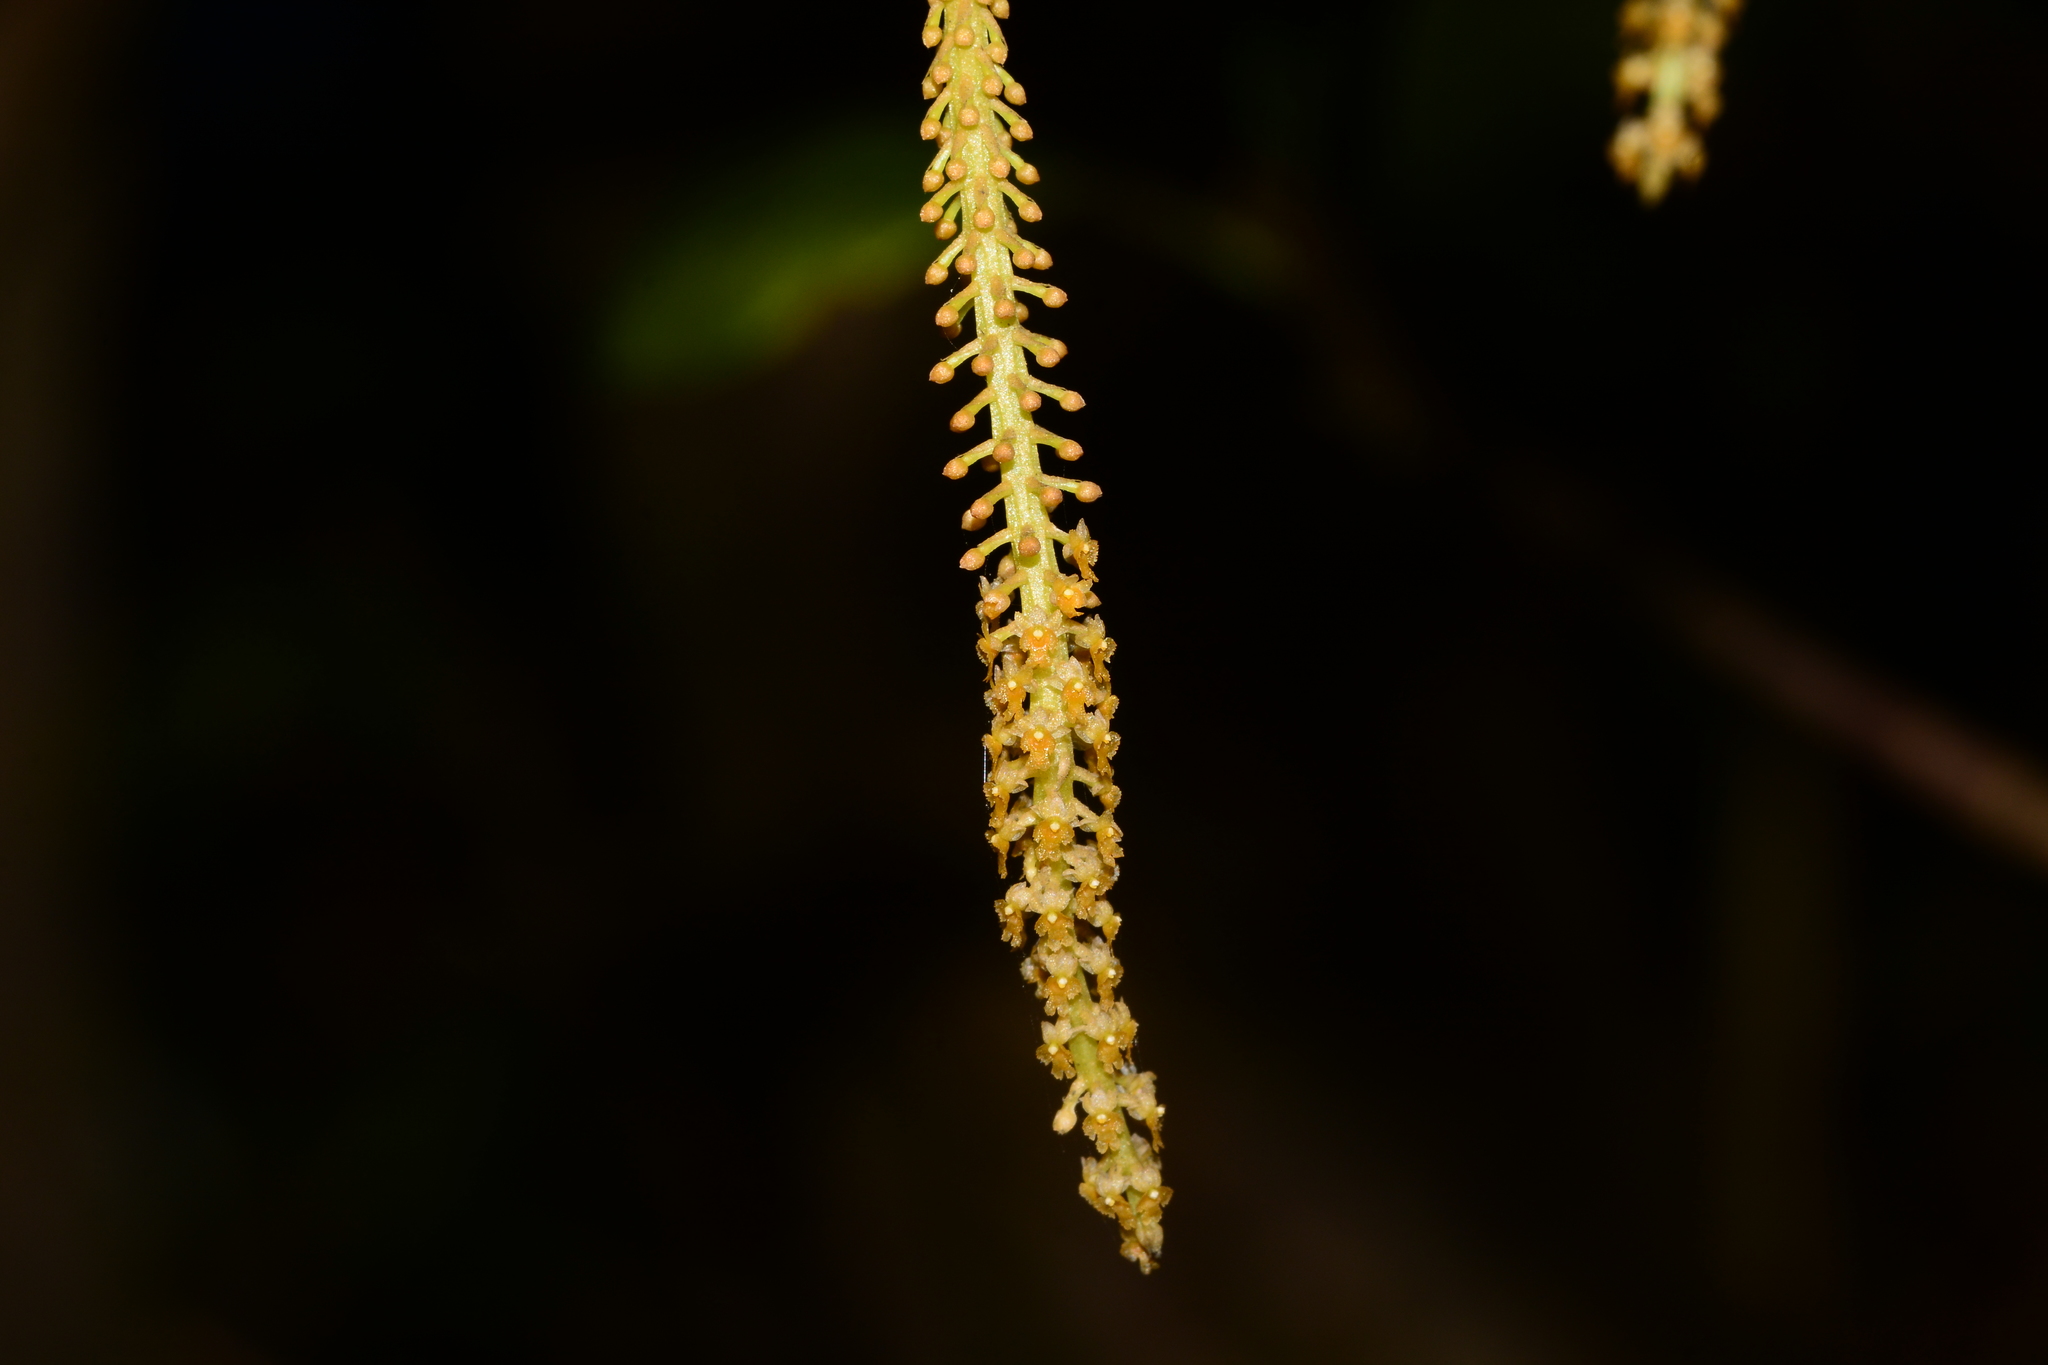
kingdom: Plantae
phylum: Tracheophyta
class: Liliopsida
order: Asparagales
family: Orchidaceae
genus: Oberonia
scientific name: Oberonia falconeri
